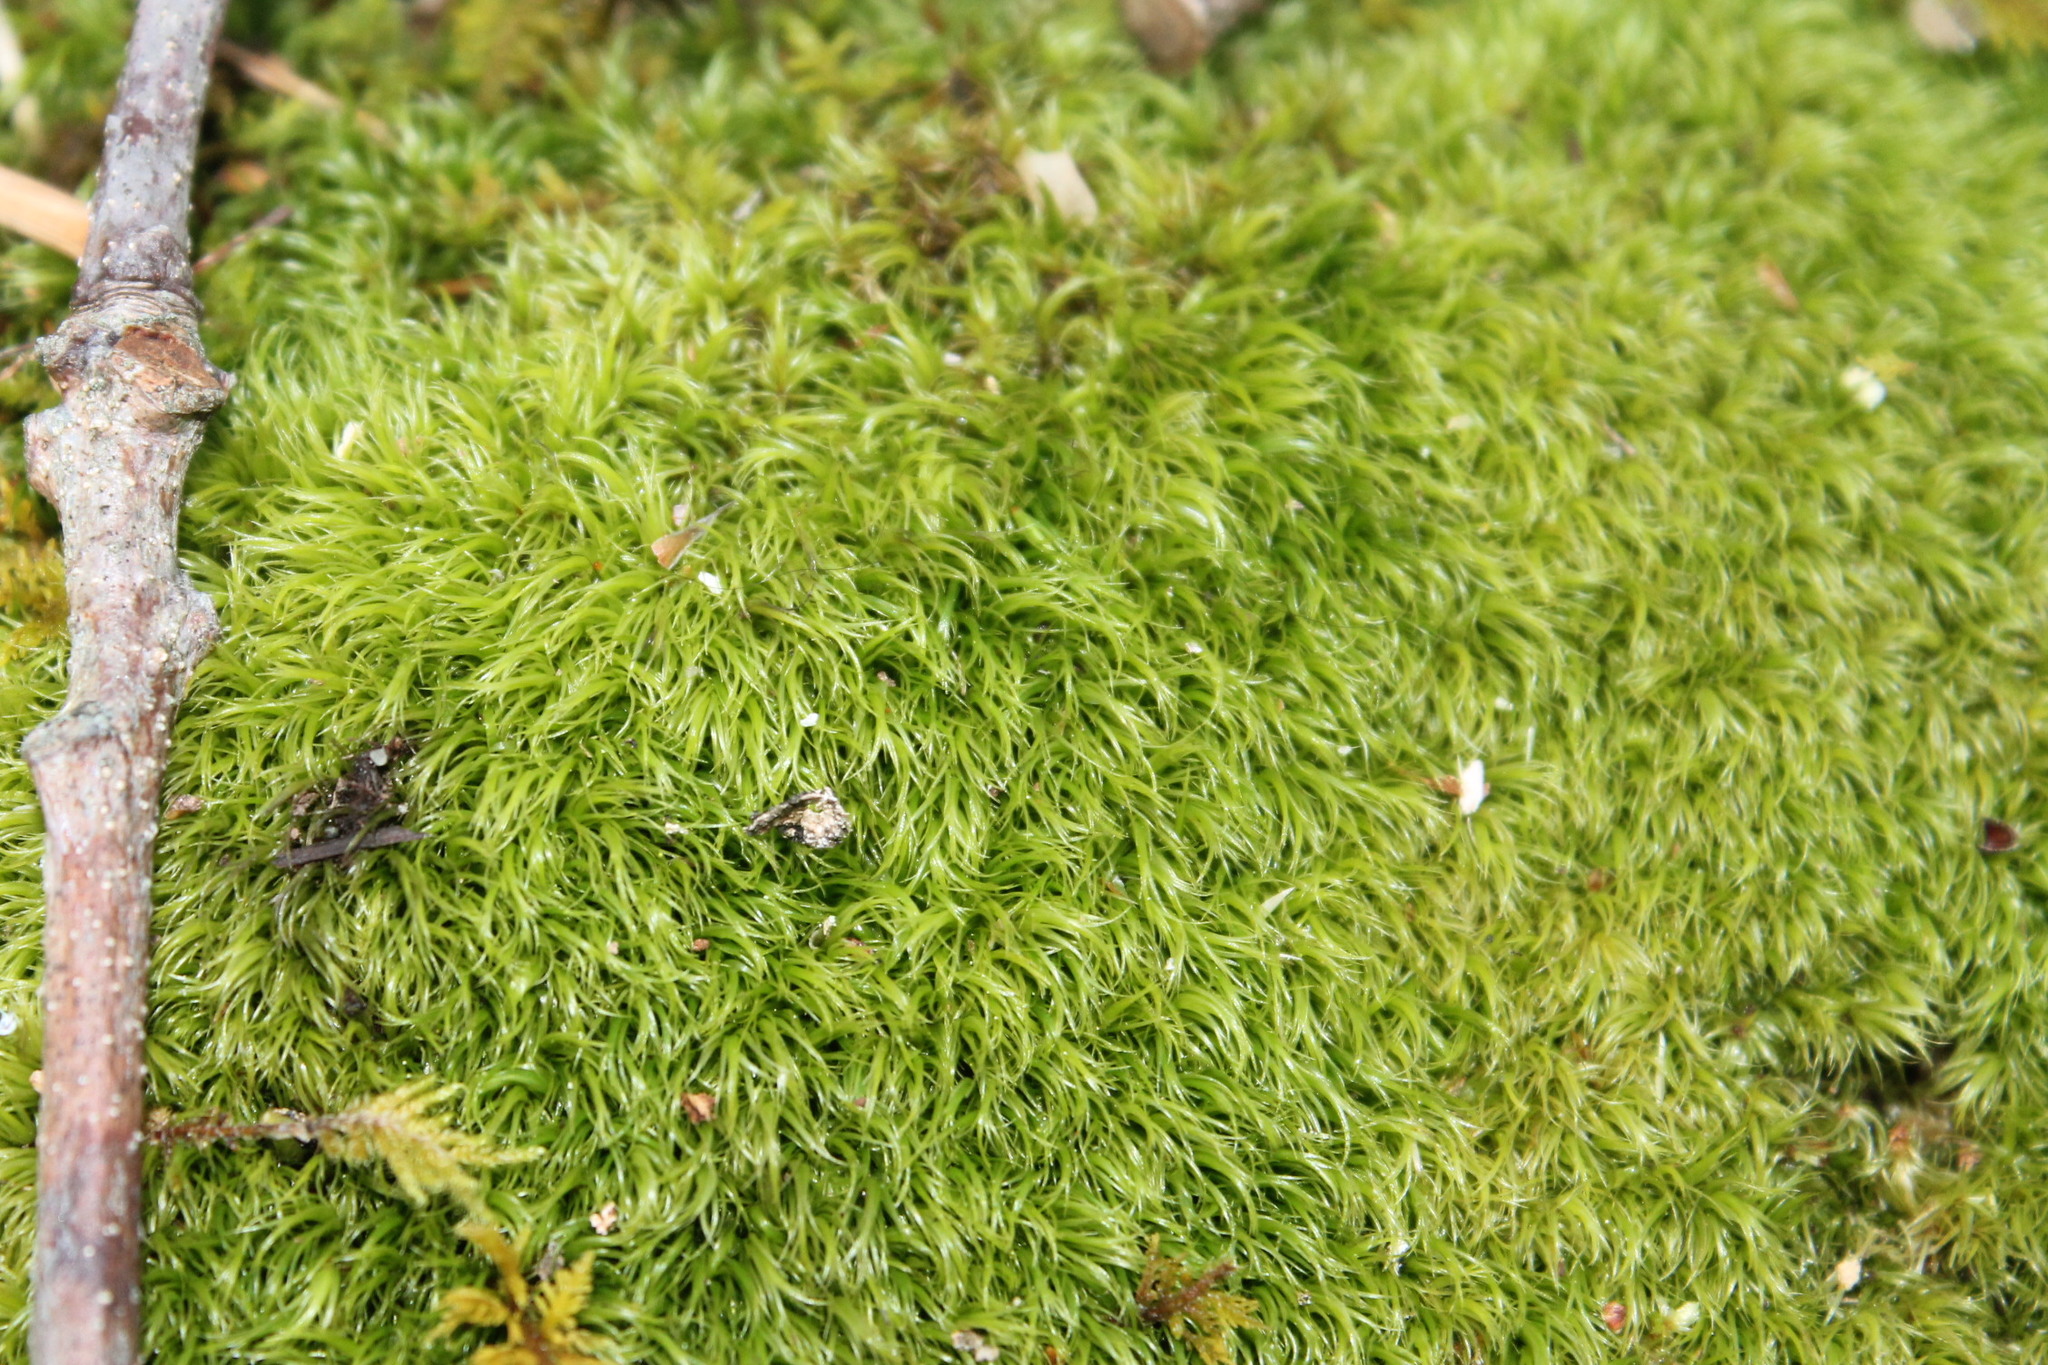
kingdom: Plantae
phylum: Bryophyta
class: Bryopsida
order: Dicranales
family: Dicranaceae
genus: Dicranum
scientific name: Dicranum scoparium
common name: Broom fork-moss
